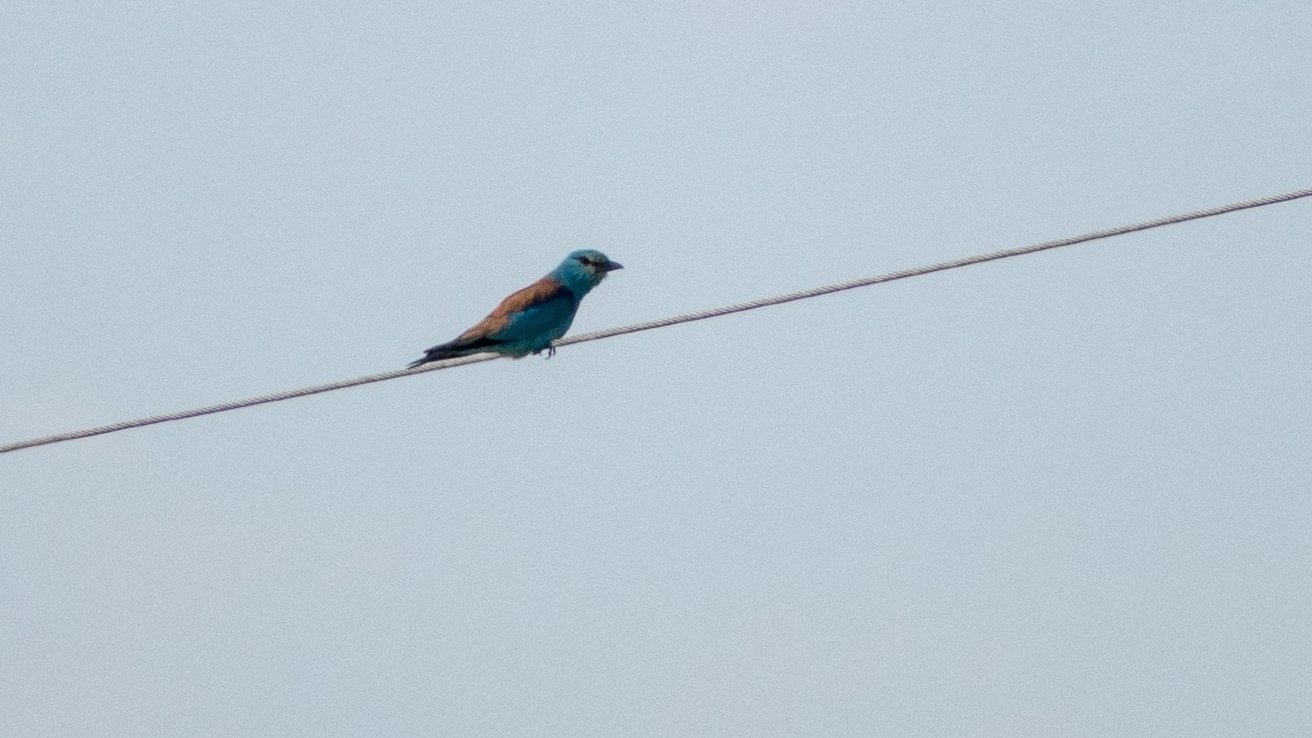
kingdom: Animalia
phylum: Chordata
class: Aves
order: Coraciiformes
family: Coraciidae
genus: Coracias
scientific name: Coracias garrulus
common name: European roller
